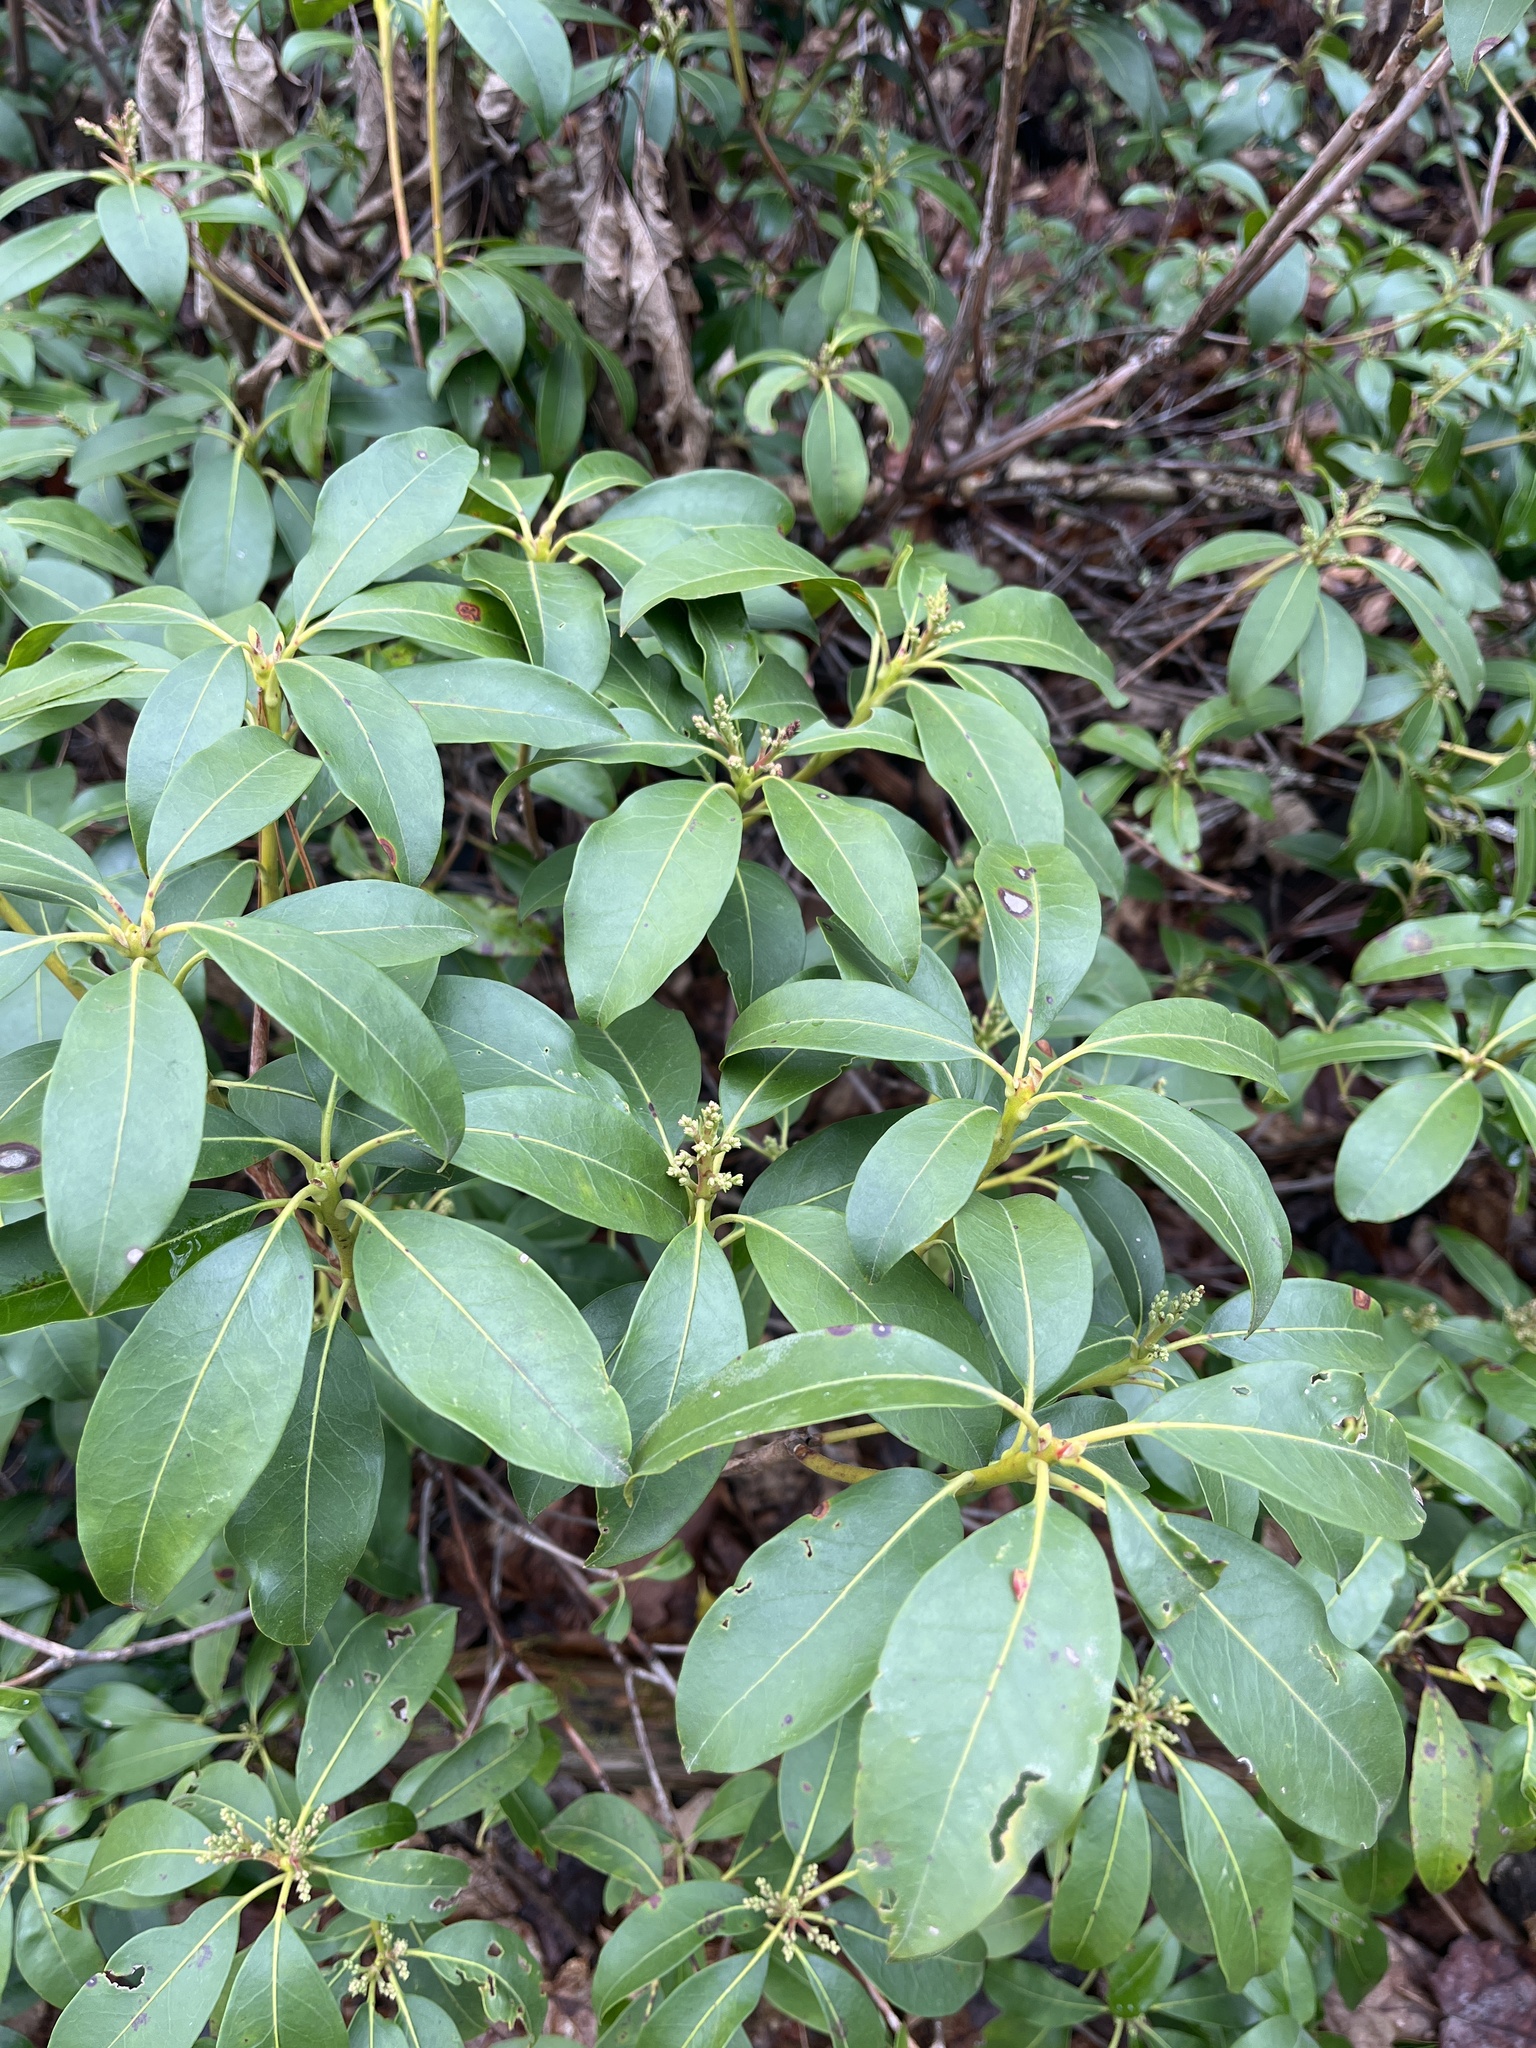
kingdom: Plantae
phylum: Tracheophyta
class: Magnoliopsida
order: Ericales
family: Ericaceae
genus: Kalmia
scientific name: Kalmia latifolia
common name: Mountain-laurel
